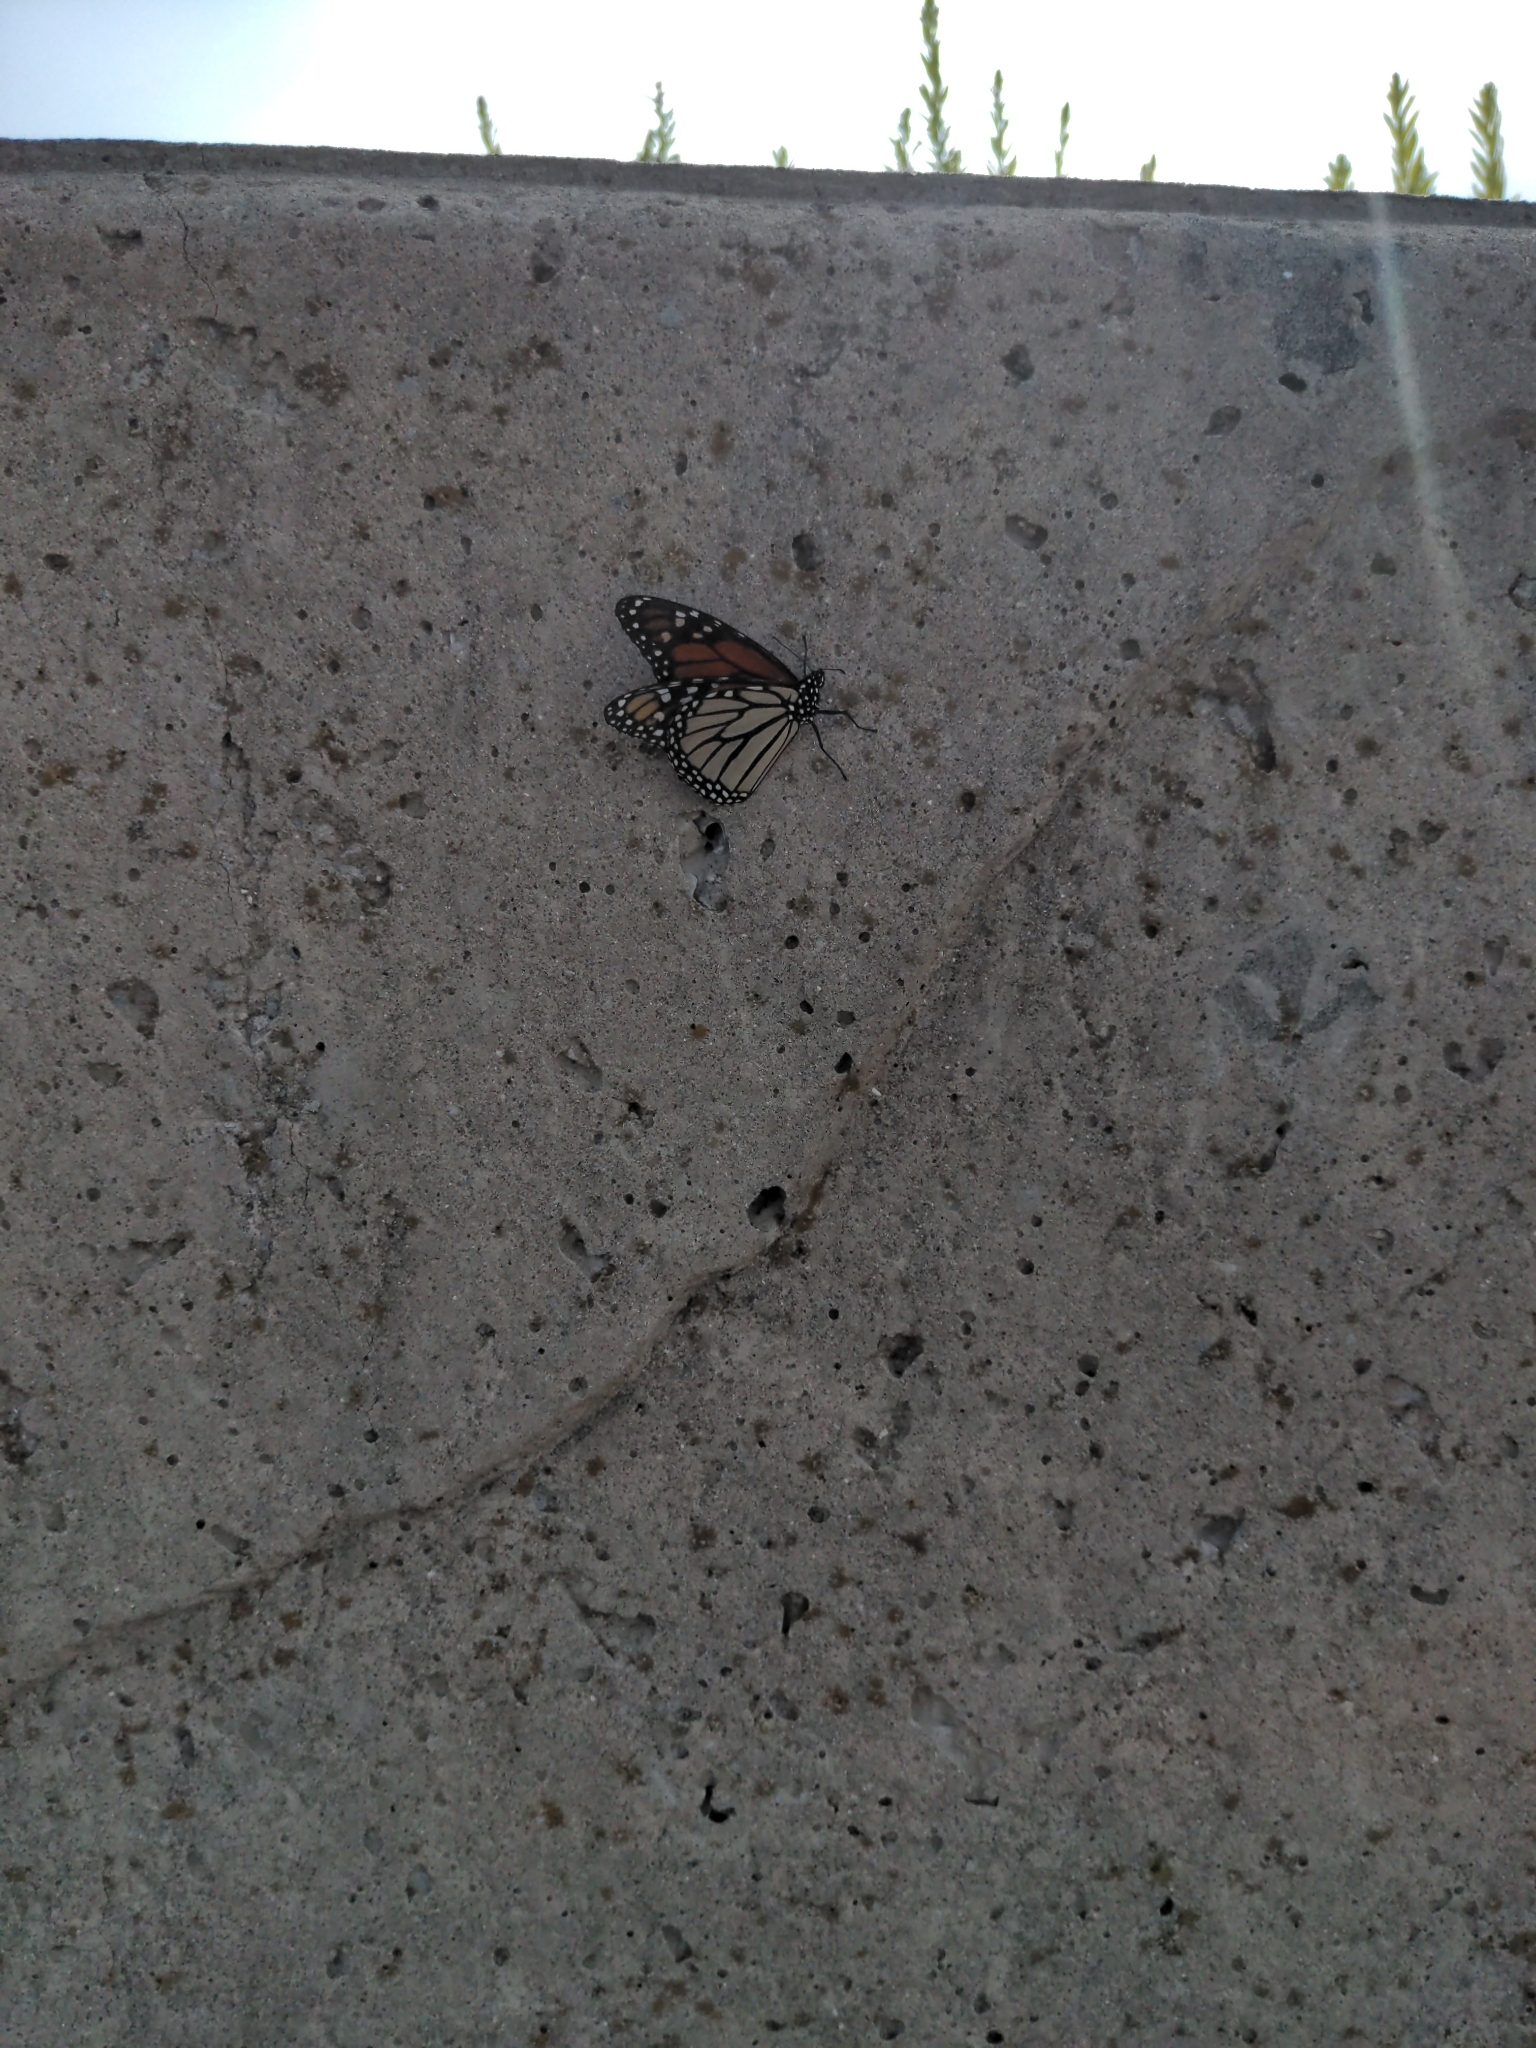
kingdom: Animalia
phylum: Arthropoda
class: Insecta
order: Lepidoptera
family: Nymphalidae
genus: Danaus
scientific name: Danaus plexippus
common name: Monarch
